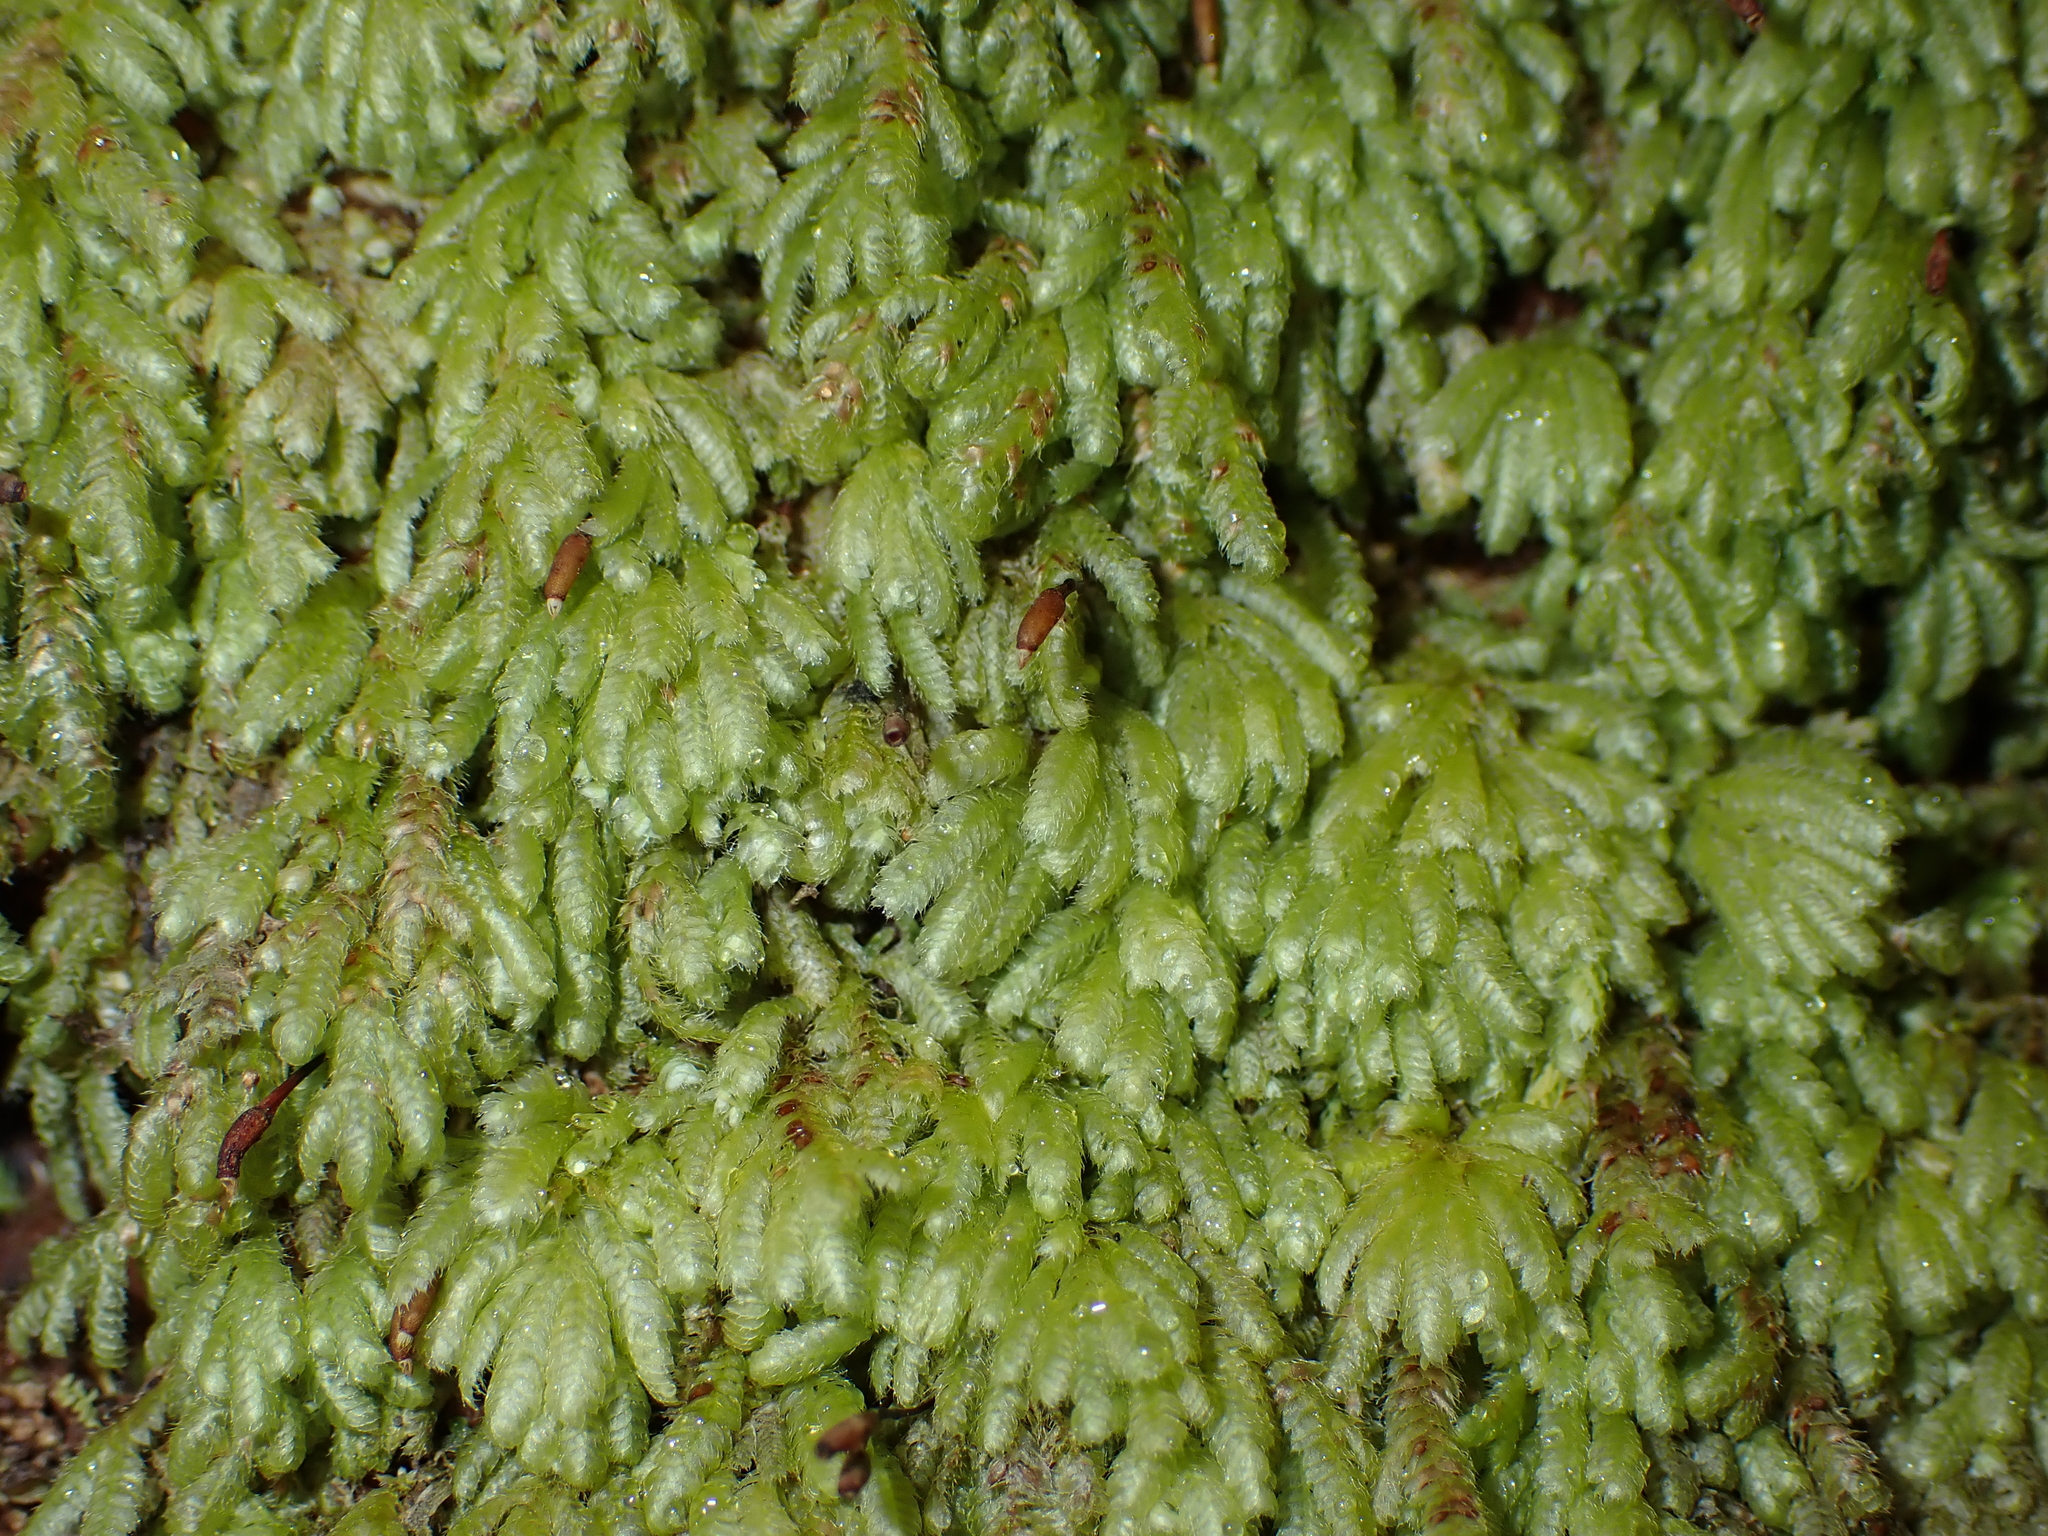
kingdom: Plantae
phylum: Bryophyta
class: Bryopsida
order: Hypopterygiales
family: Hypopterygiaceae
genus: Catharomnion
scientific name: Catharomnion ciliatum
